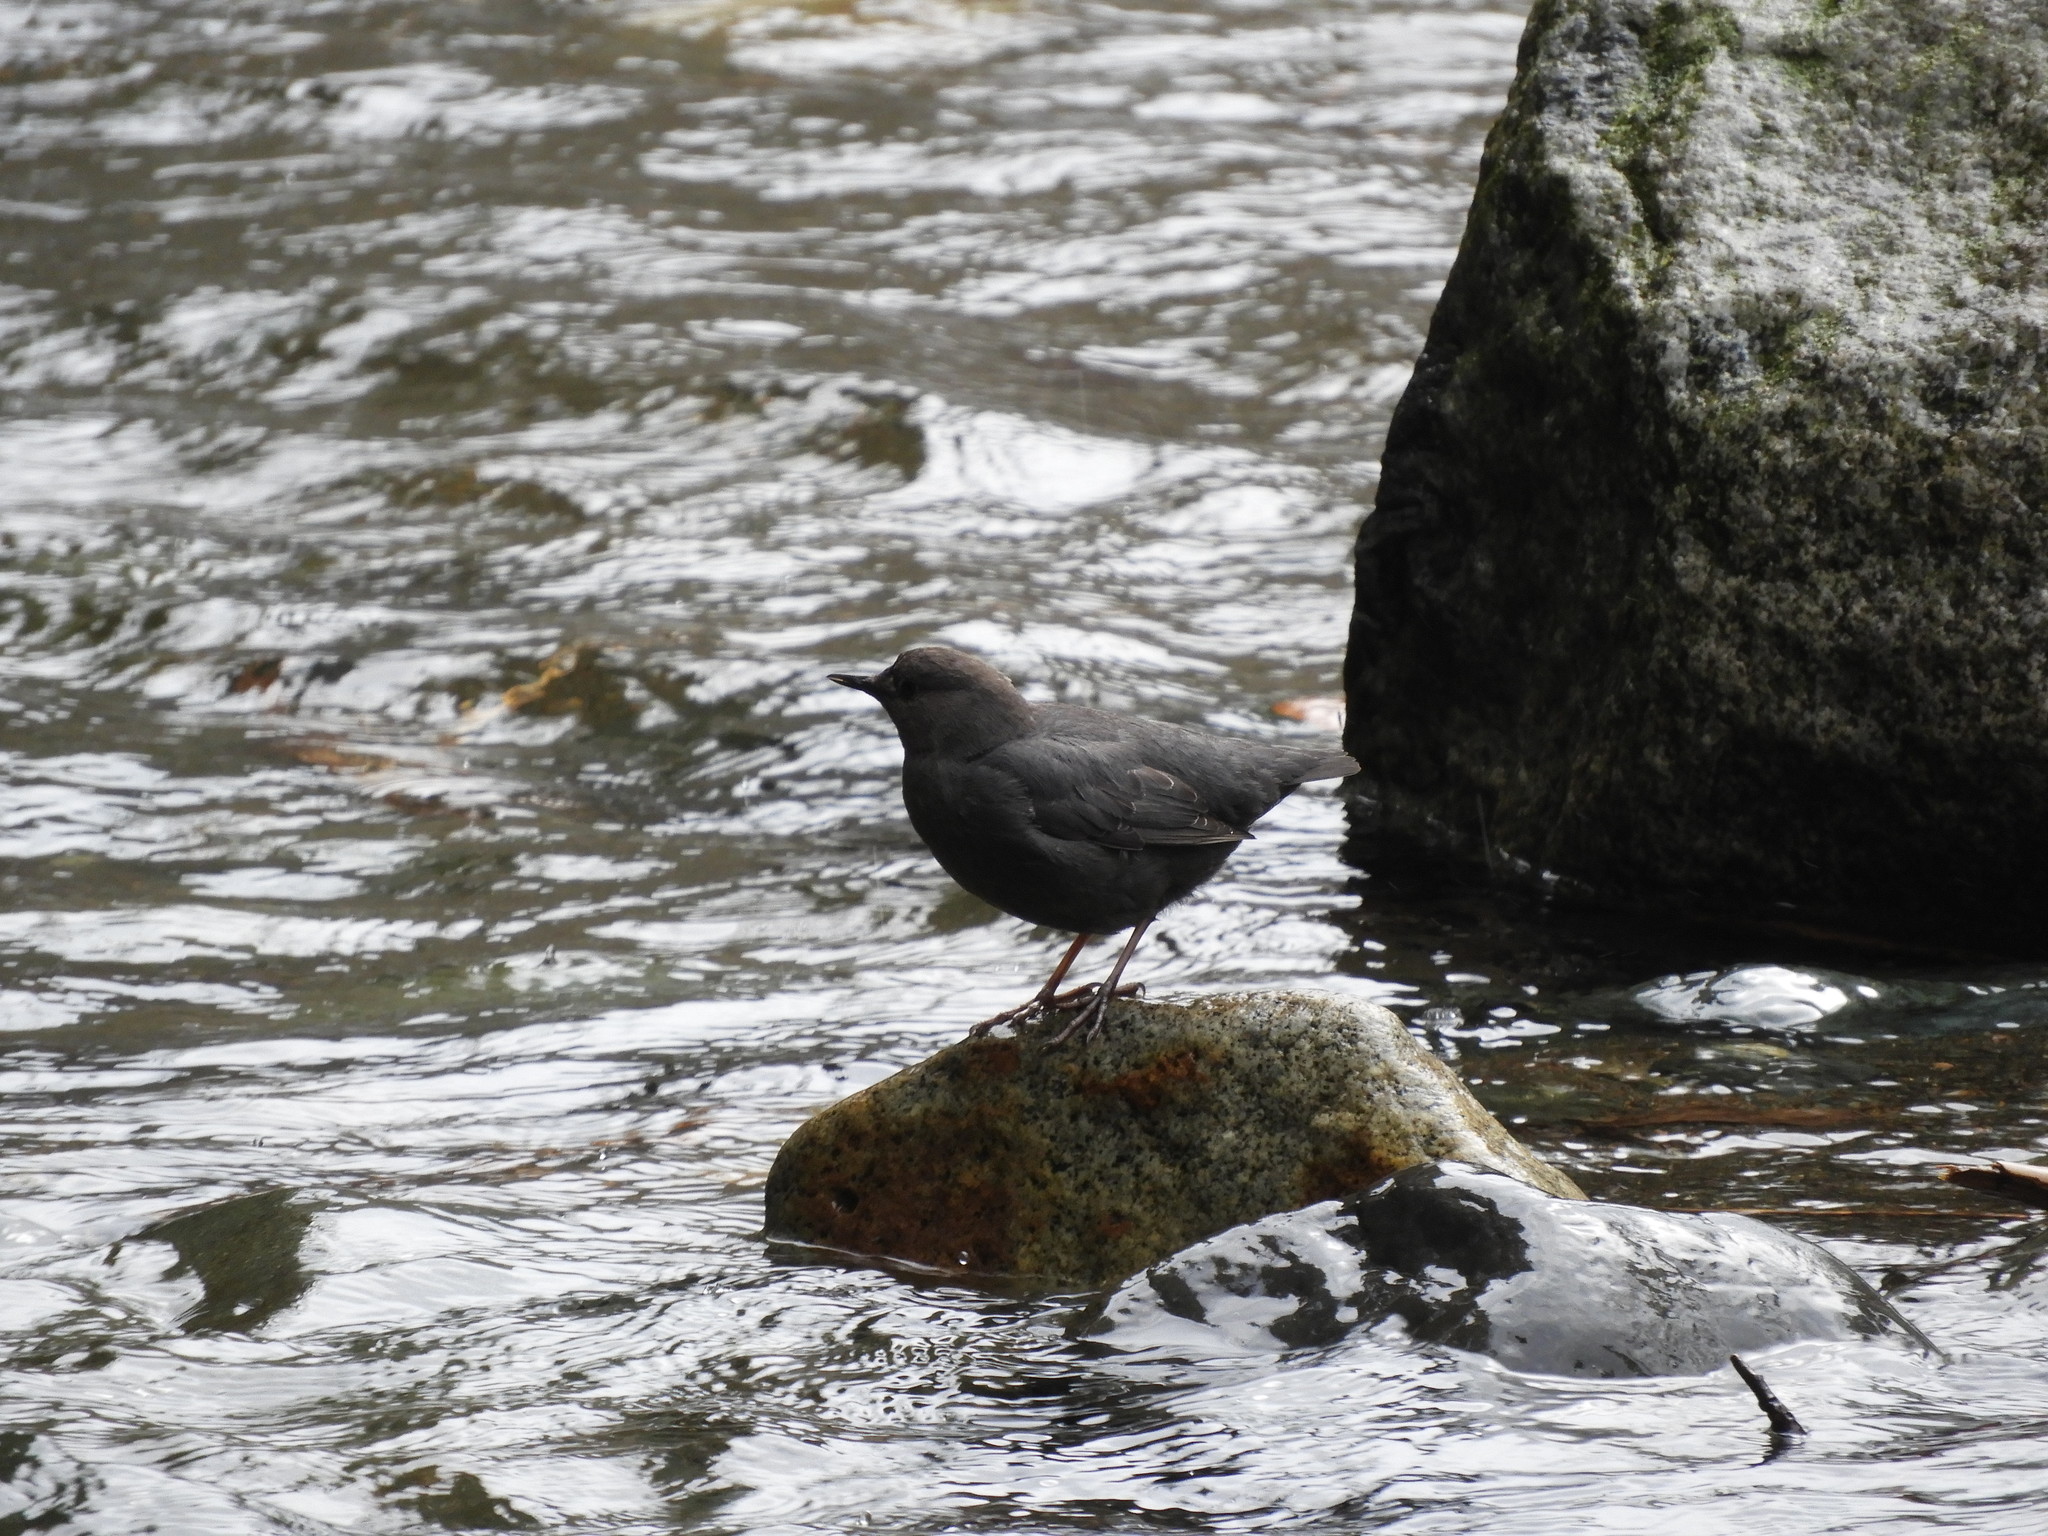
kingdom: Animalia
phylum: Chordata
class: Aves
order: Passeriformes
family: Cinclidae
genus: Cinclus
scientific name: Cinclus mexicanus
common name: American dipper
